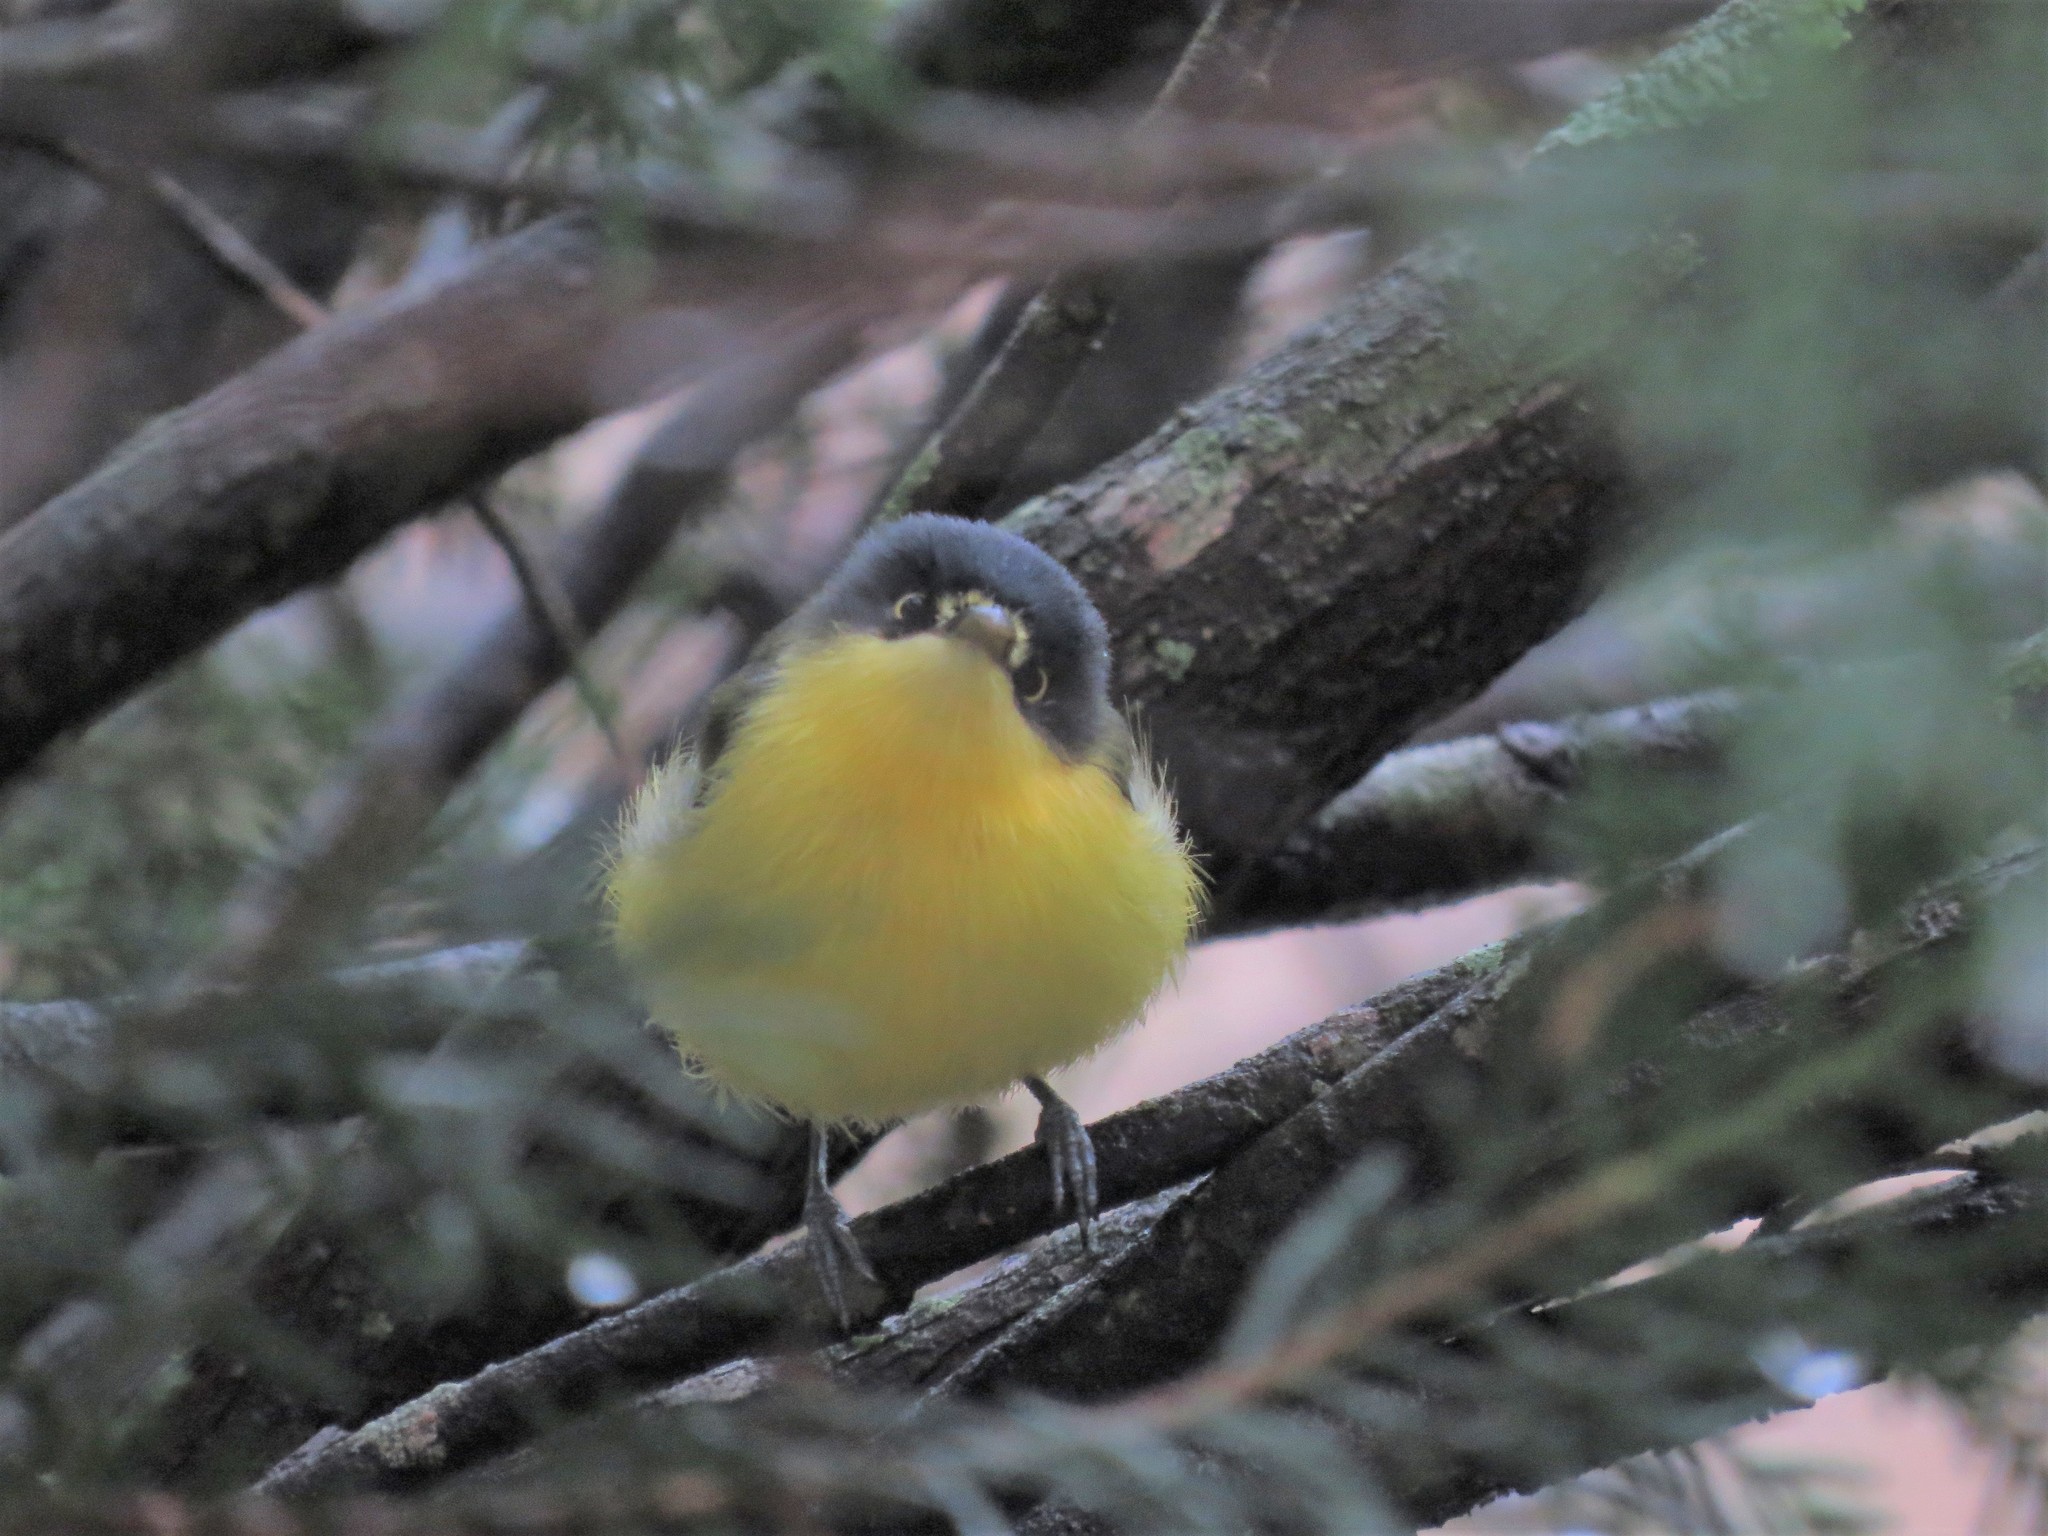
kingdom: Animalia
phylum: Chordata
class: Aves
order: Passeriformes
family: Tyrannidae
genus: Todirostrum
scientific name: Todirostrum cinereum
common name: Common tody-flycatcher
